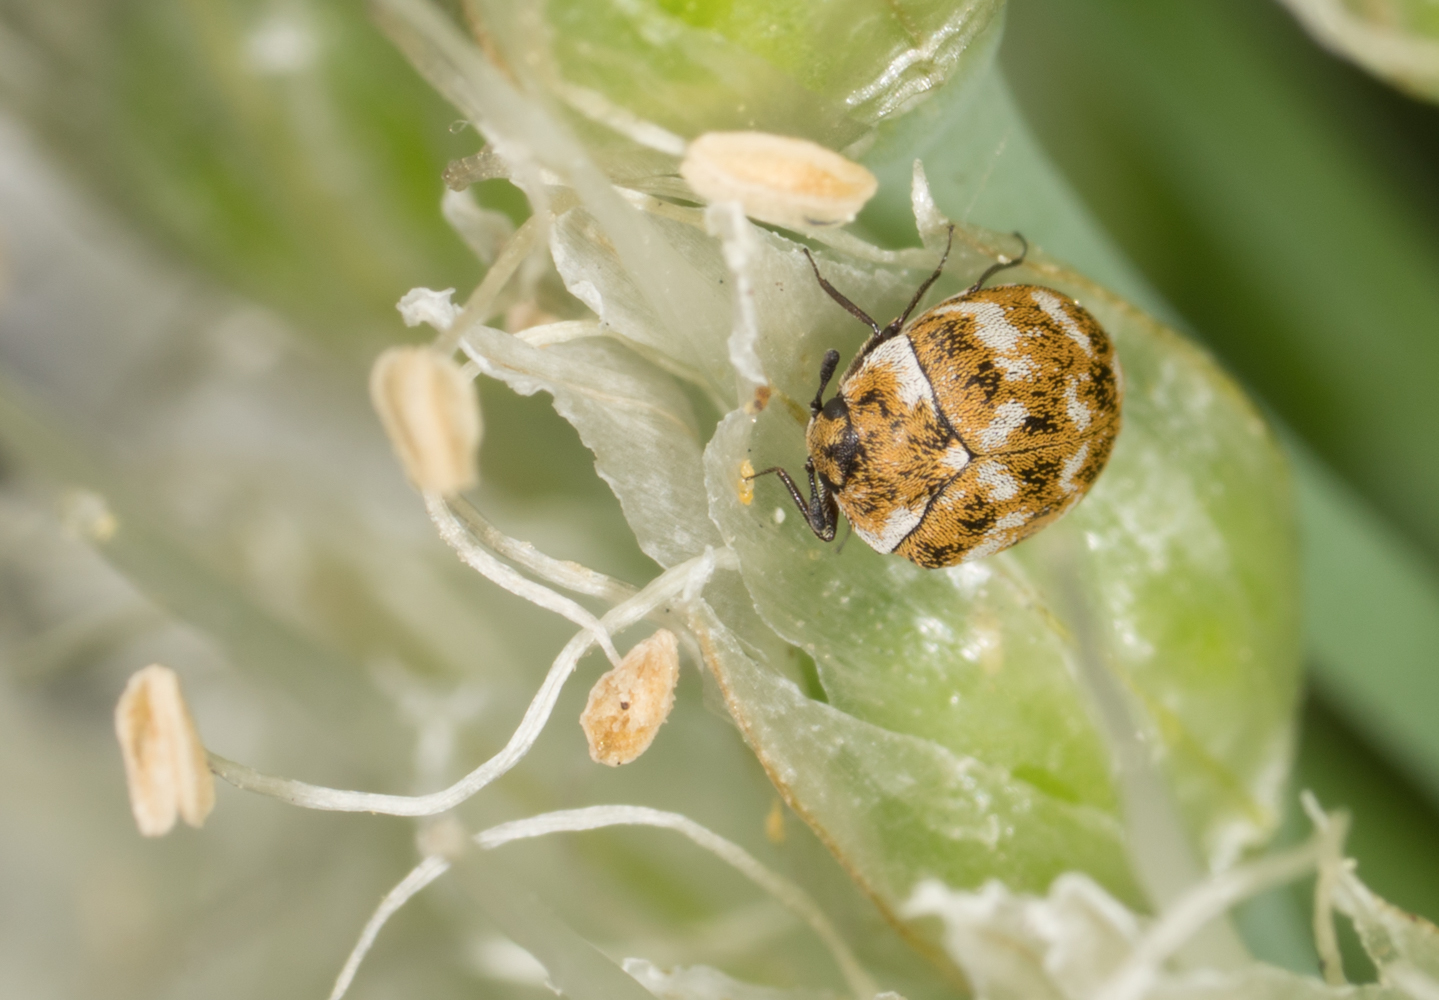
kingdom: Animalia
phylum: Arthropoda
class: Insecta
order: Coleoptera
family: Dermestidae
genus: Anthrenus
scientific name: Anthrenus verbasci
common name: Varied carpet beetle
